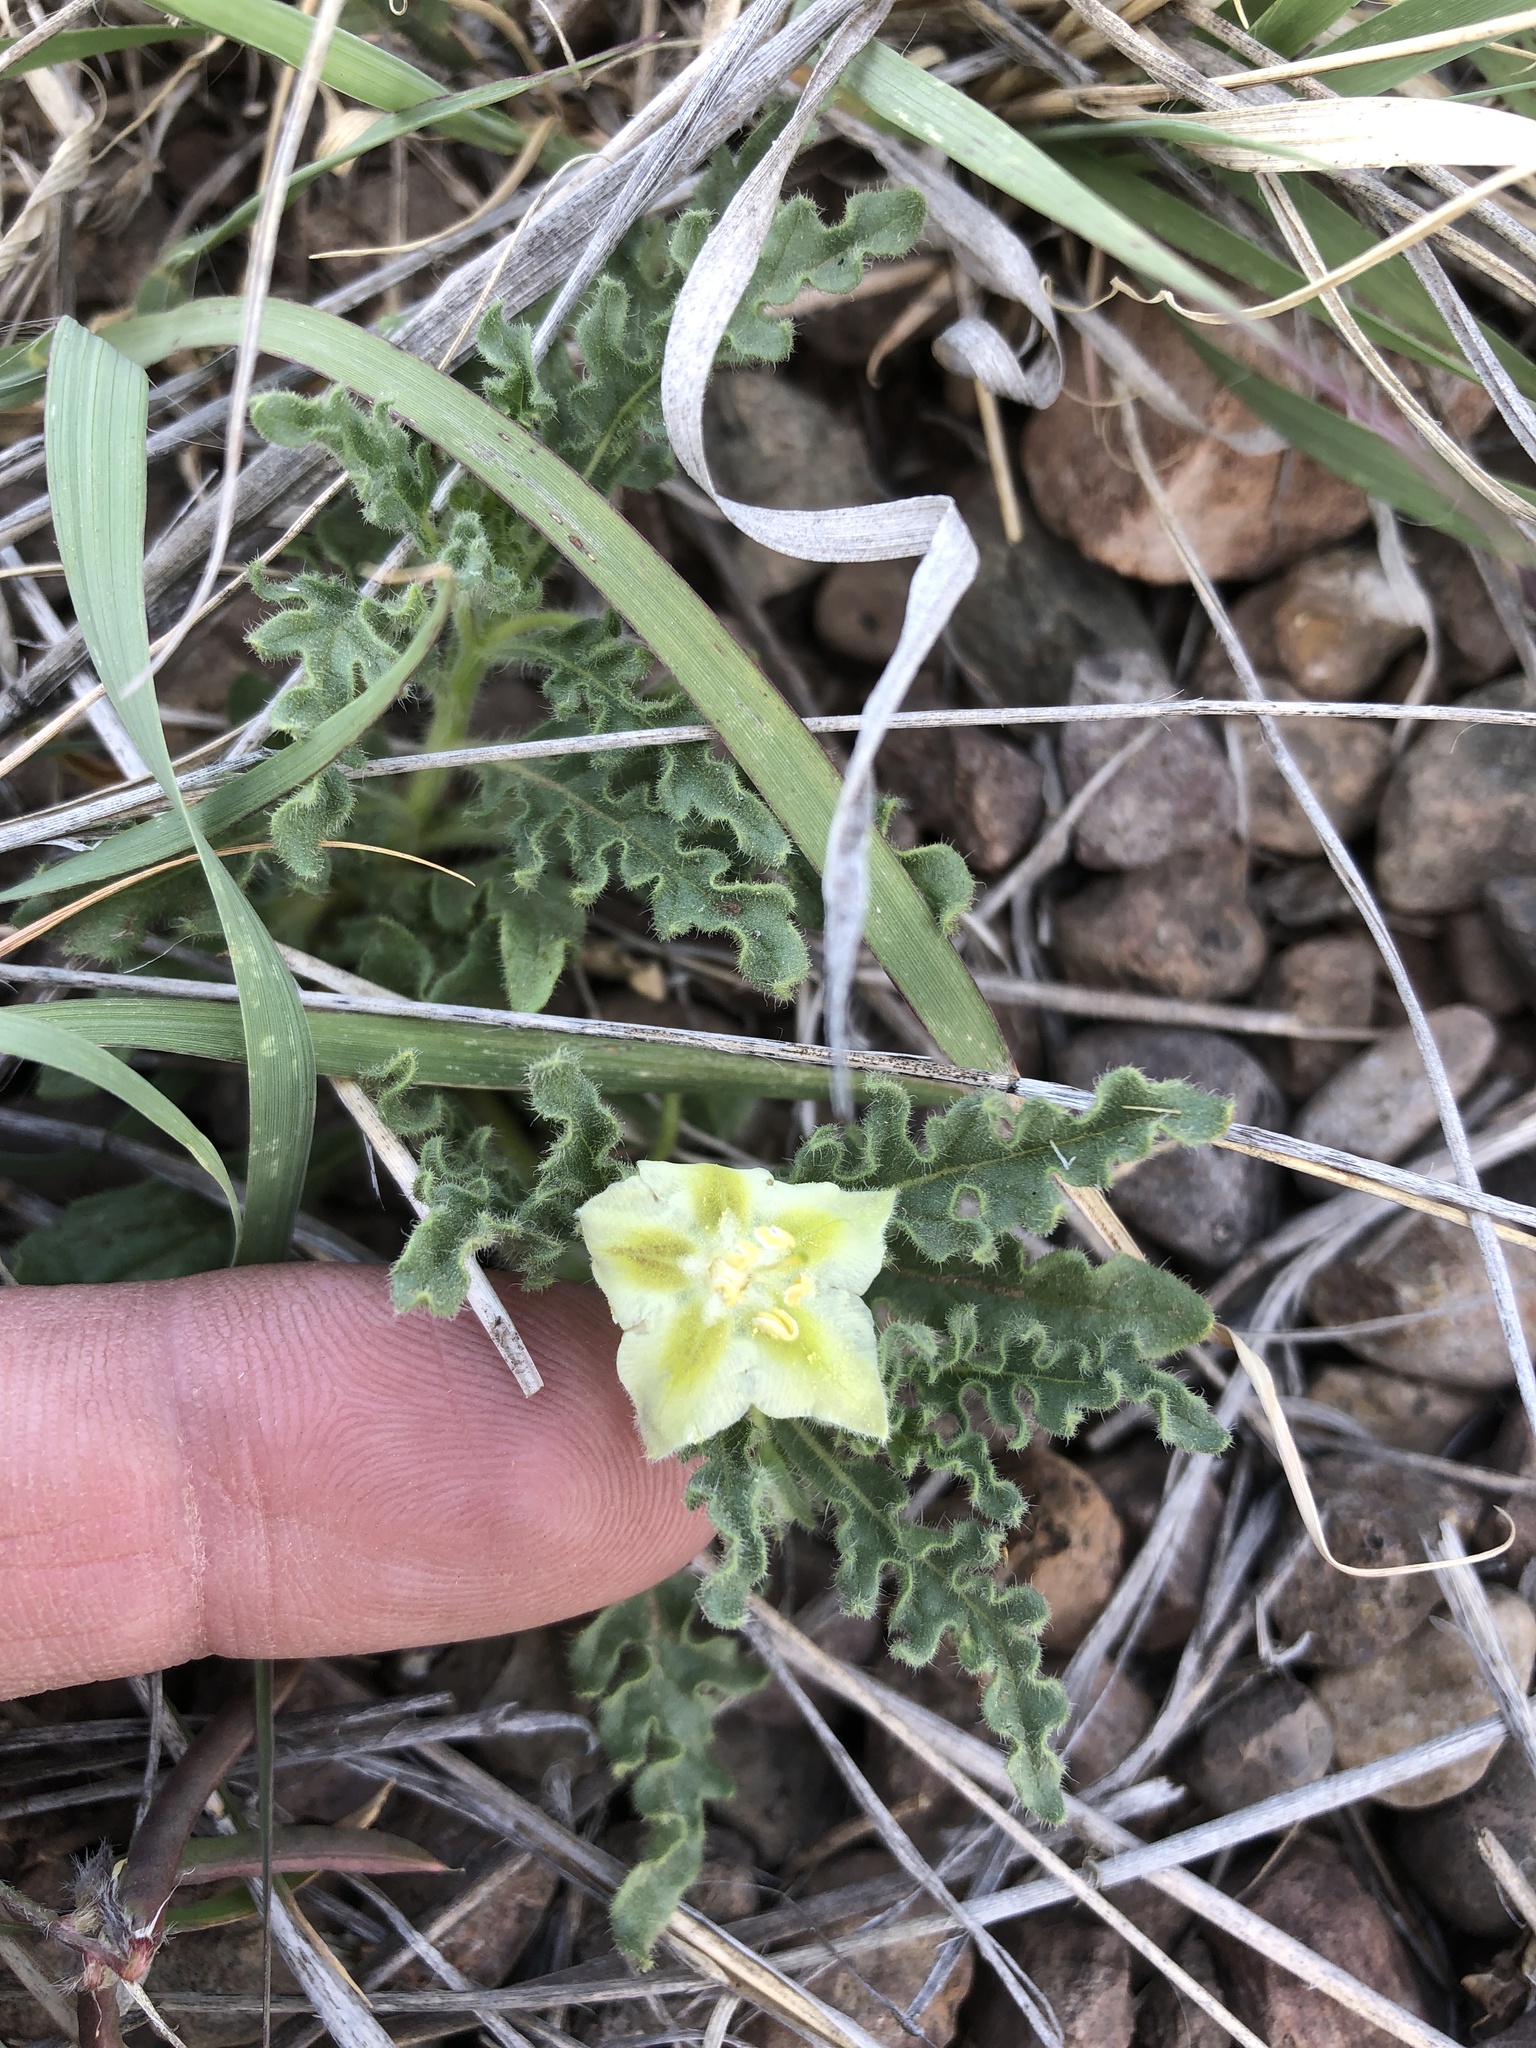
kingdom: Plantae
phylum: Tracheophyta
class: Magnoliopsida
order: Solanales
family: Solanaceae
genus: Chamaesaracha
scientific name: Chamaesaracha coniodes
